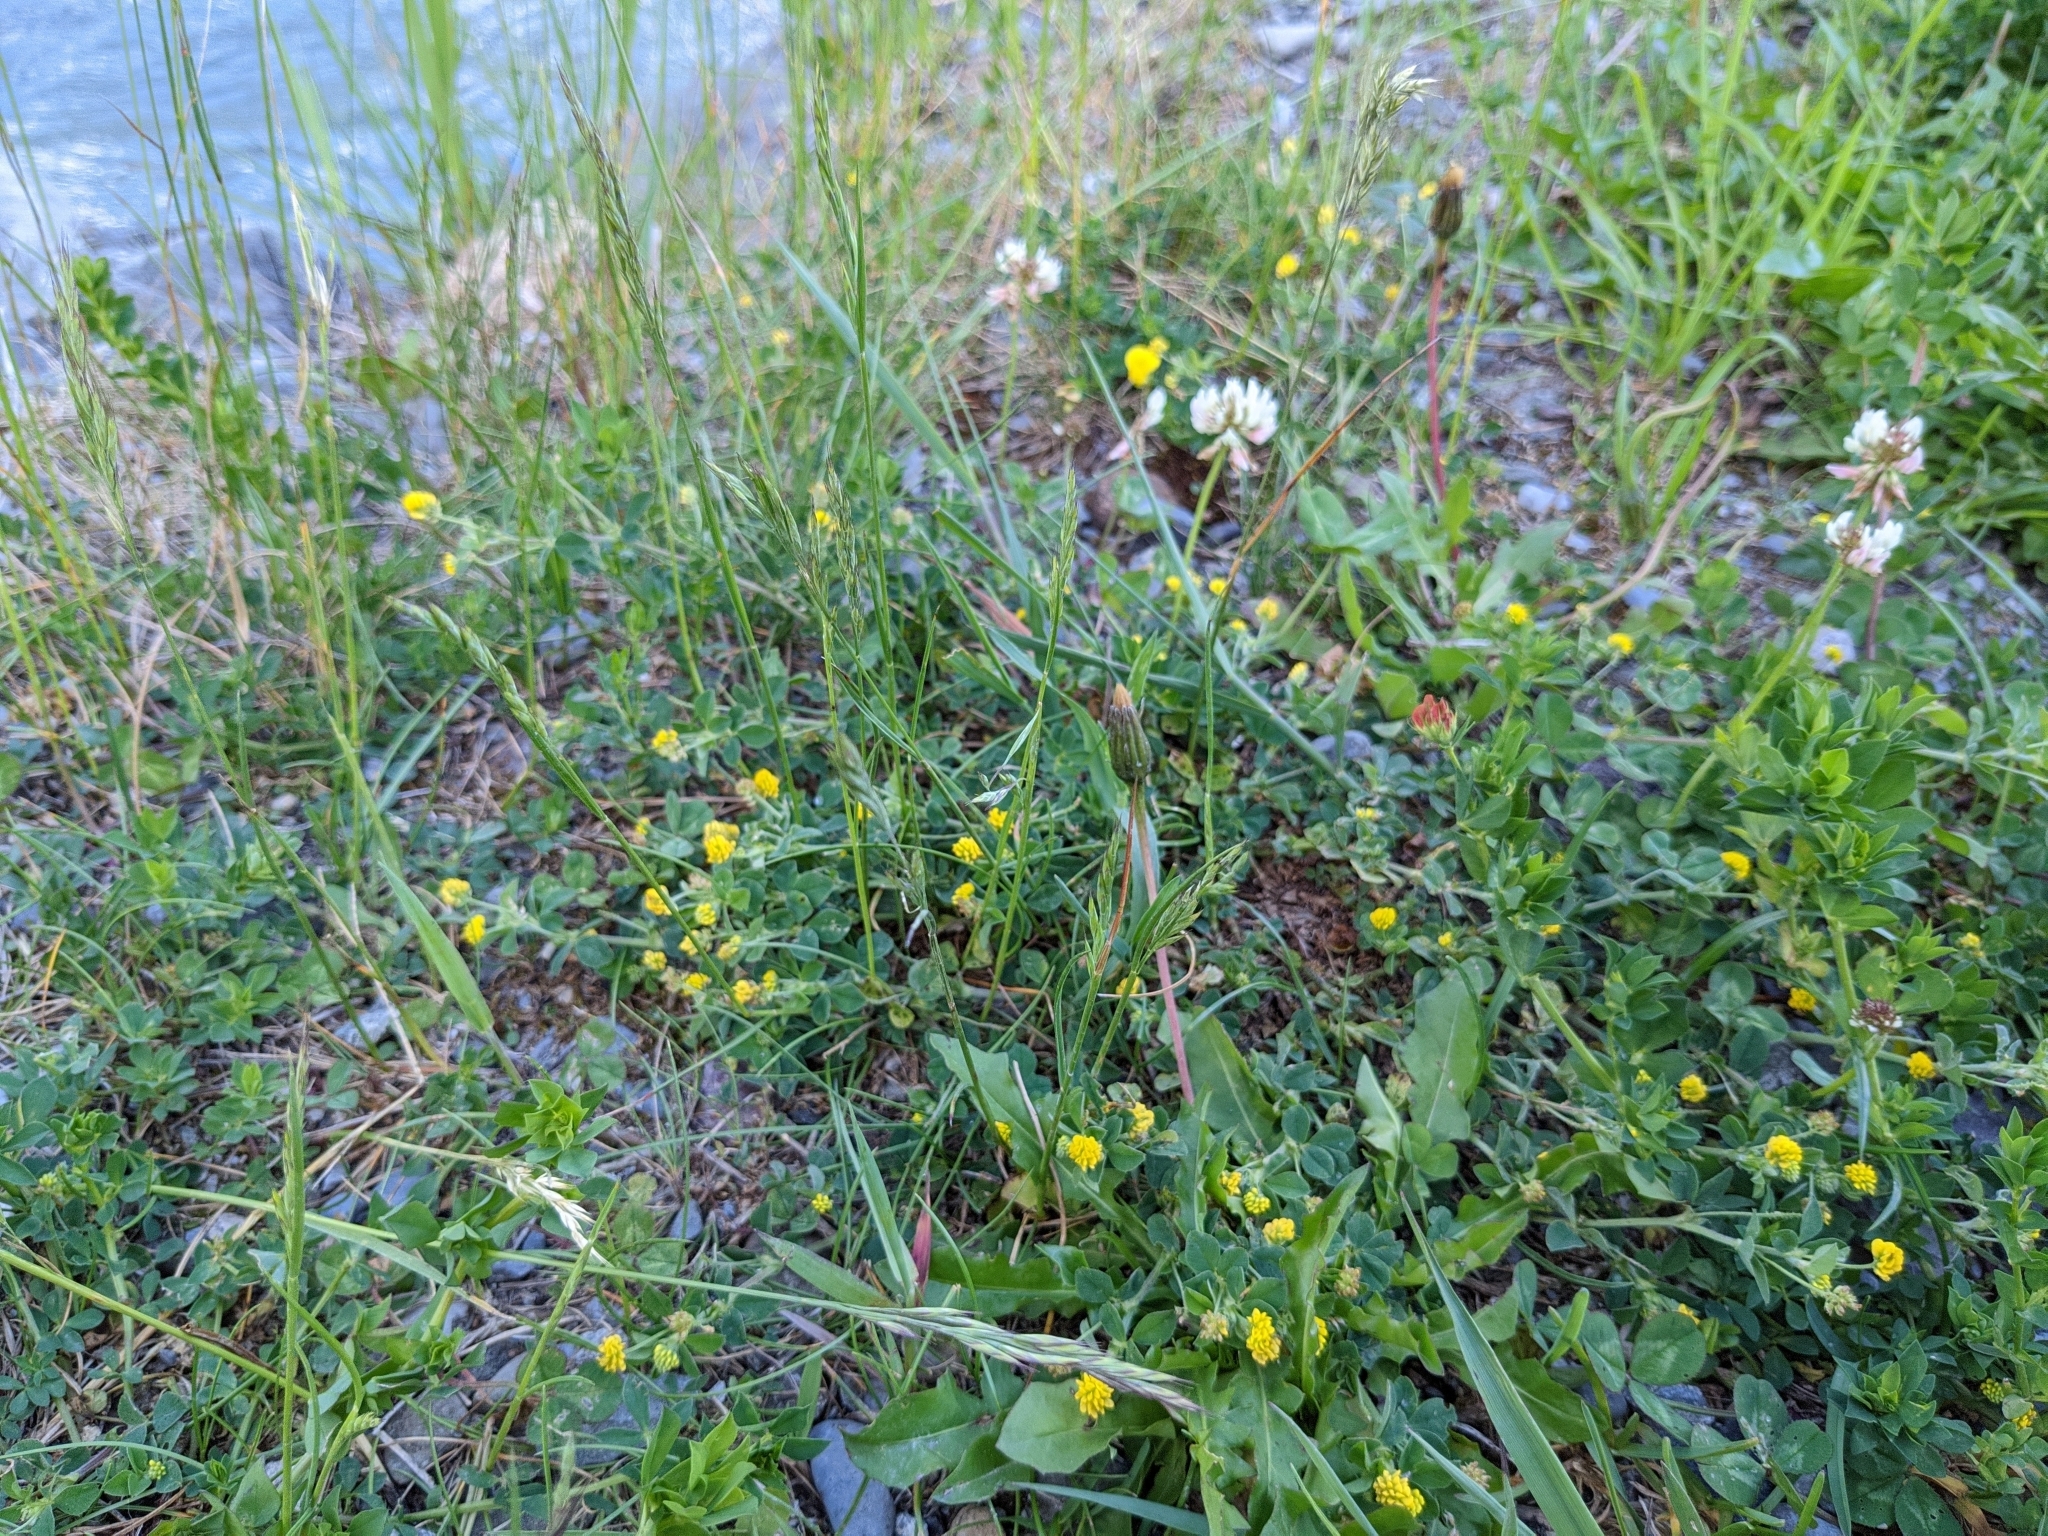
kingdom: Plantae
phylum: Tracheophyta
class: Magnoliopsida
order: Fabales
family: Fabaceae
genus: Medicago
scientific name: Medicago lupulina
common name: Black medick
